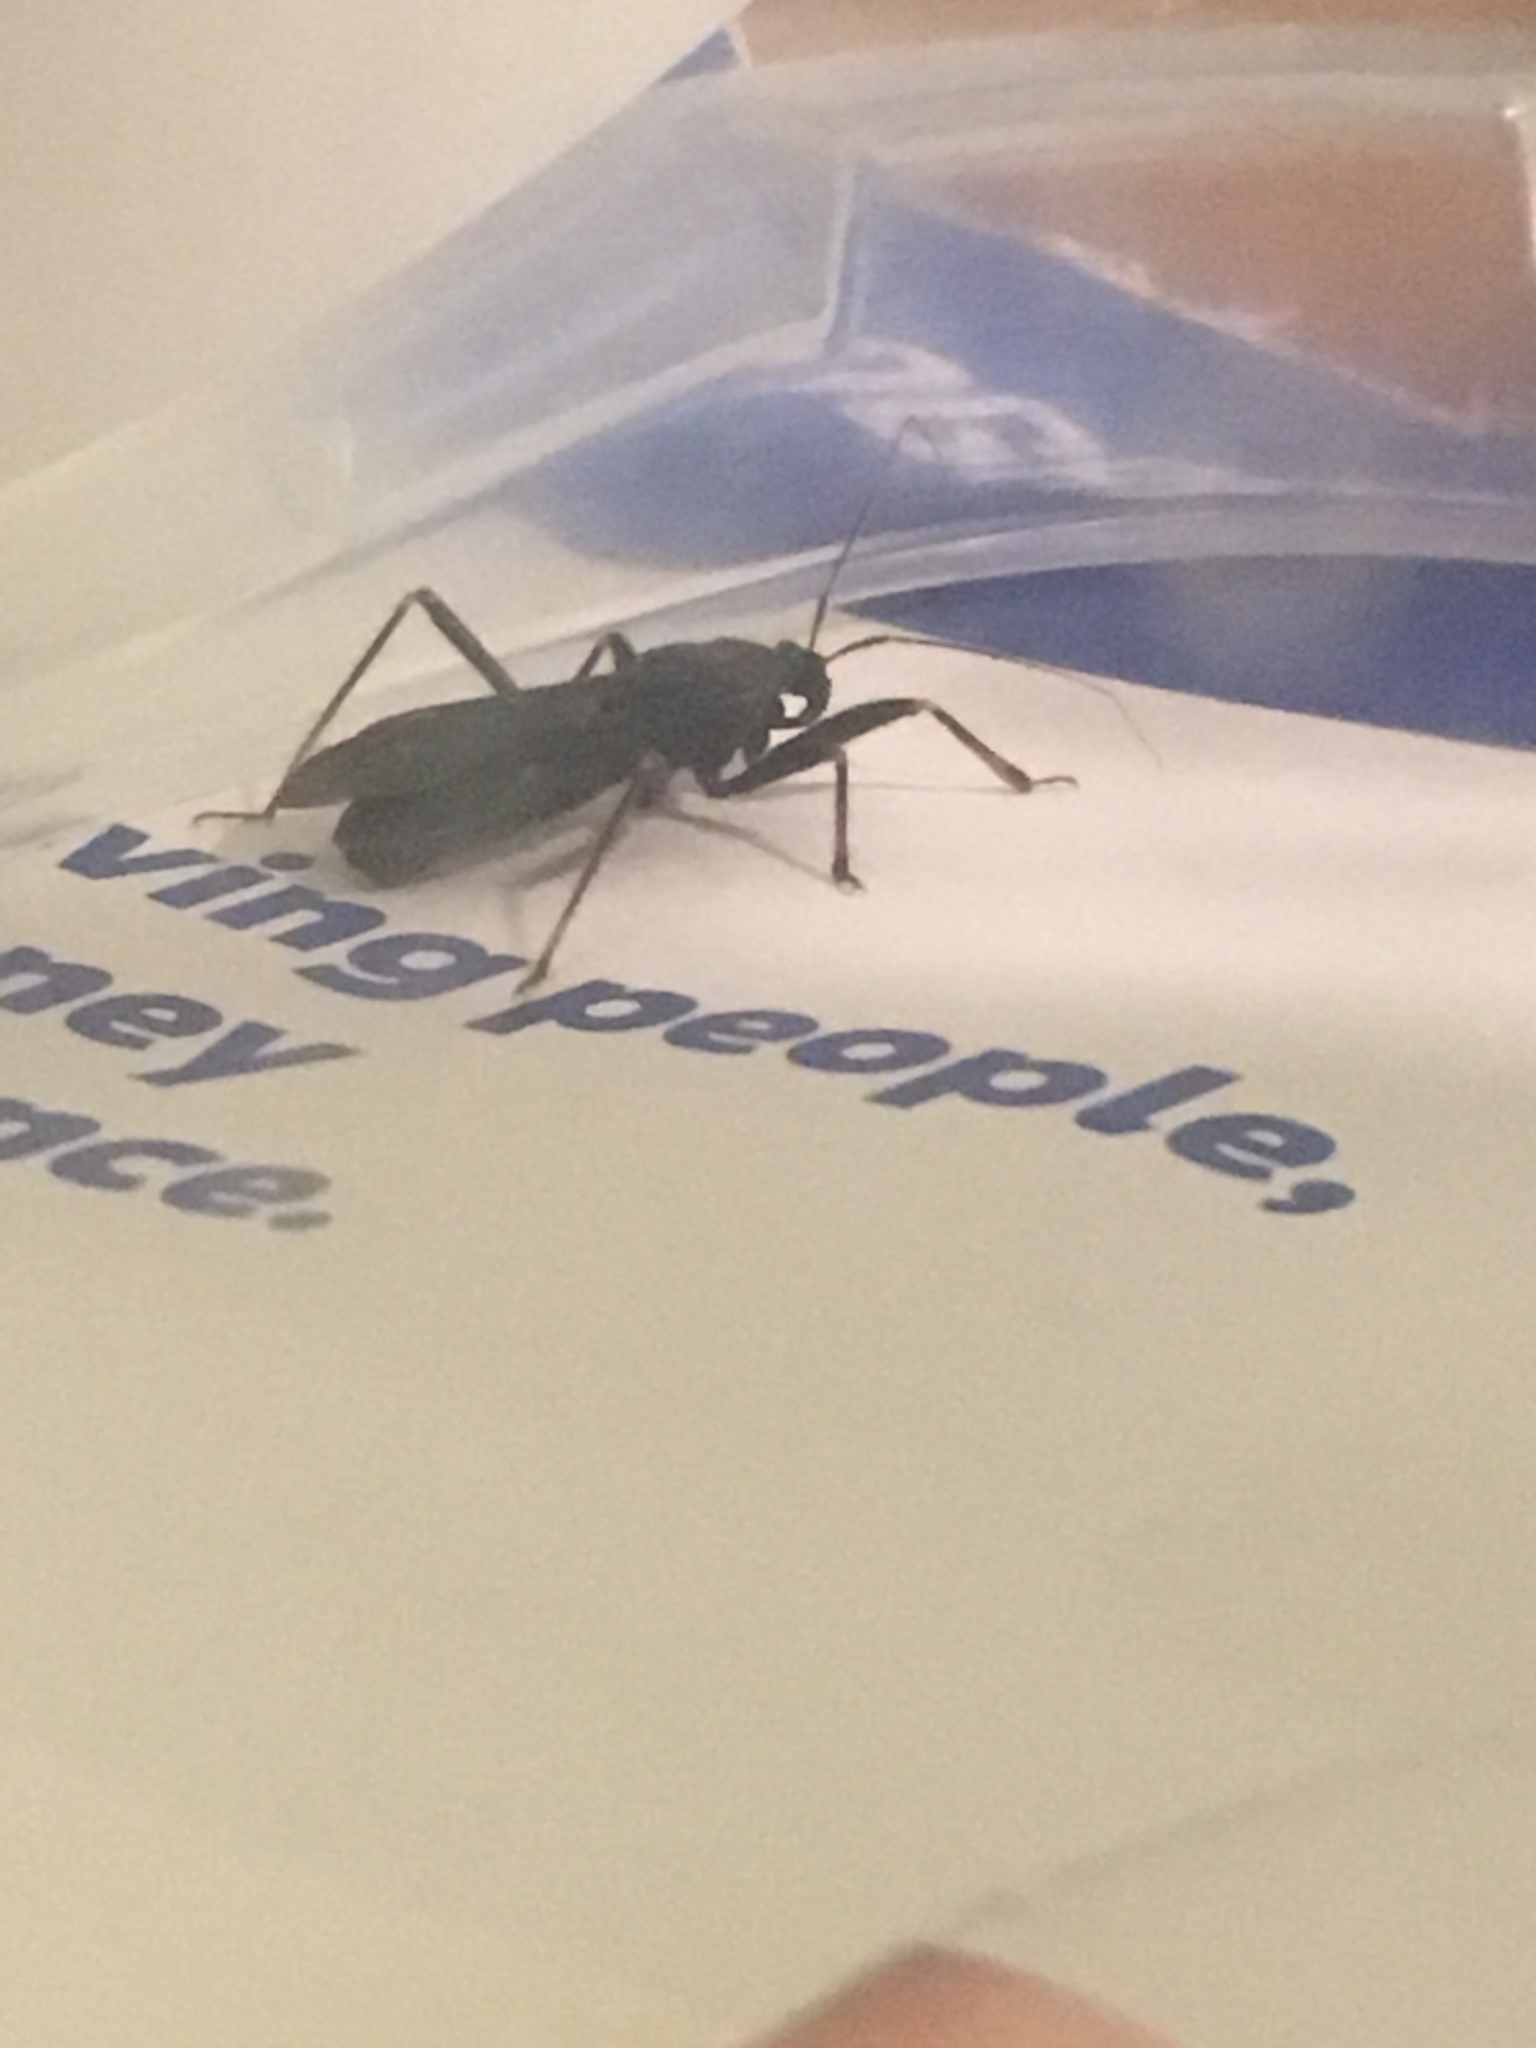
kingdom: Animalia
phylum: Arthropoda
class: Insecta
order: Hemiptera
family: Reduviidae
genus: Reduvius
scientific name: Reduvius personatus
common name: Masked hunter
